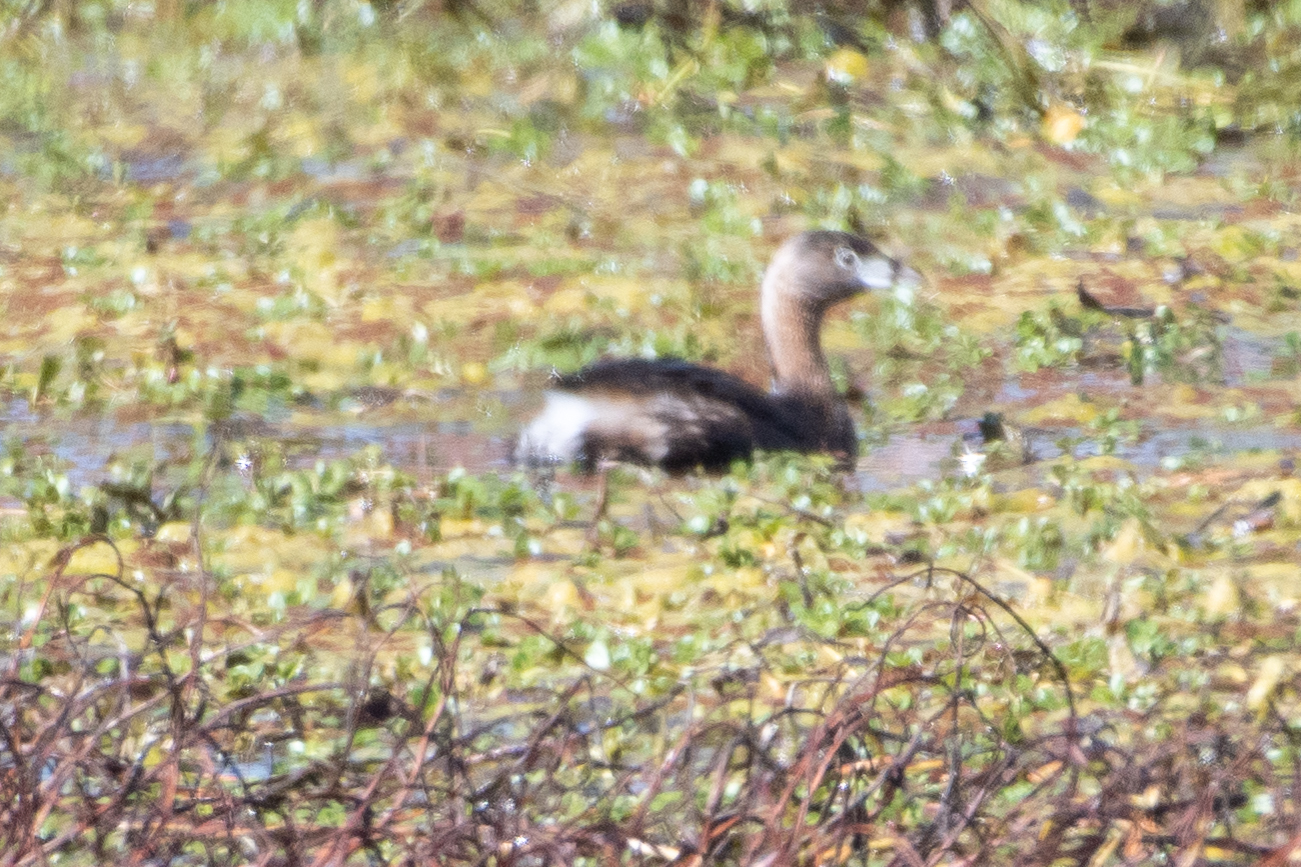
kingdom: Animalia
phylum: Chordata
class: Aves
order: Podicipediformes
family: Podicipedidae
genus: Podilymbus
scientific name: Podilymbus podiceps
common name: Pied-billed grebe
